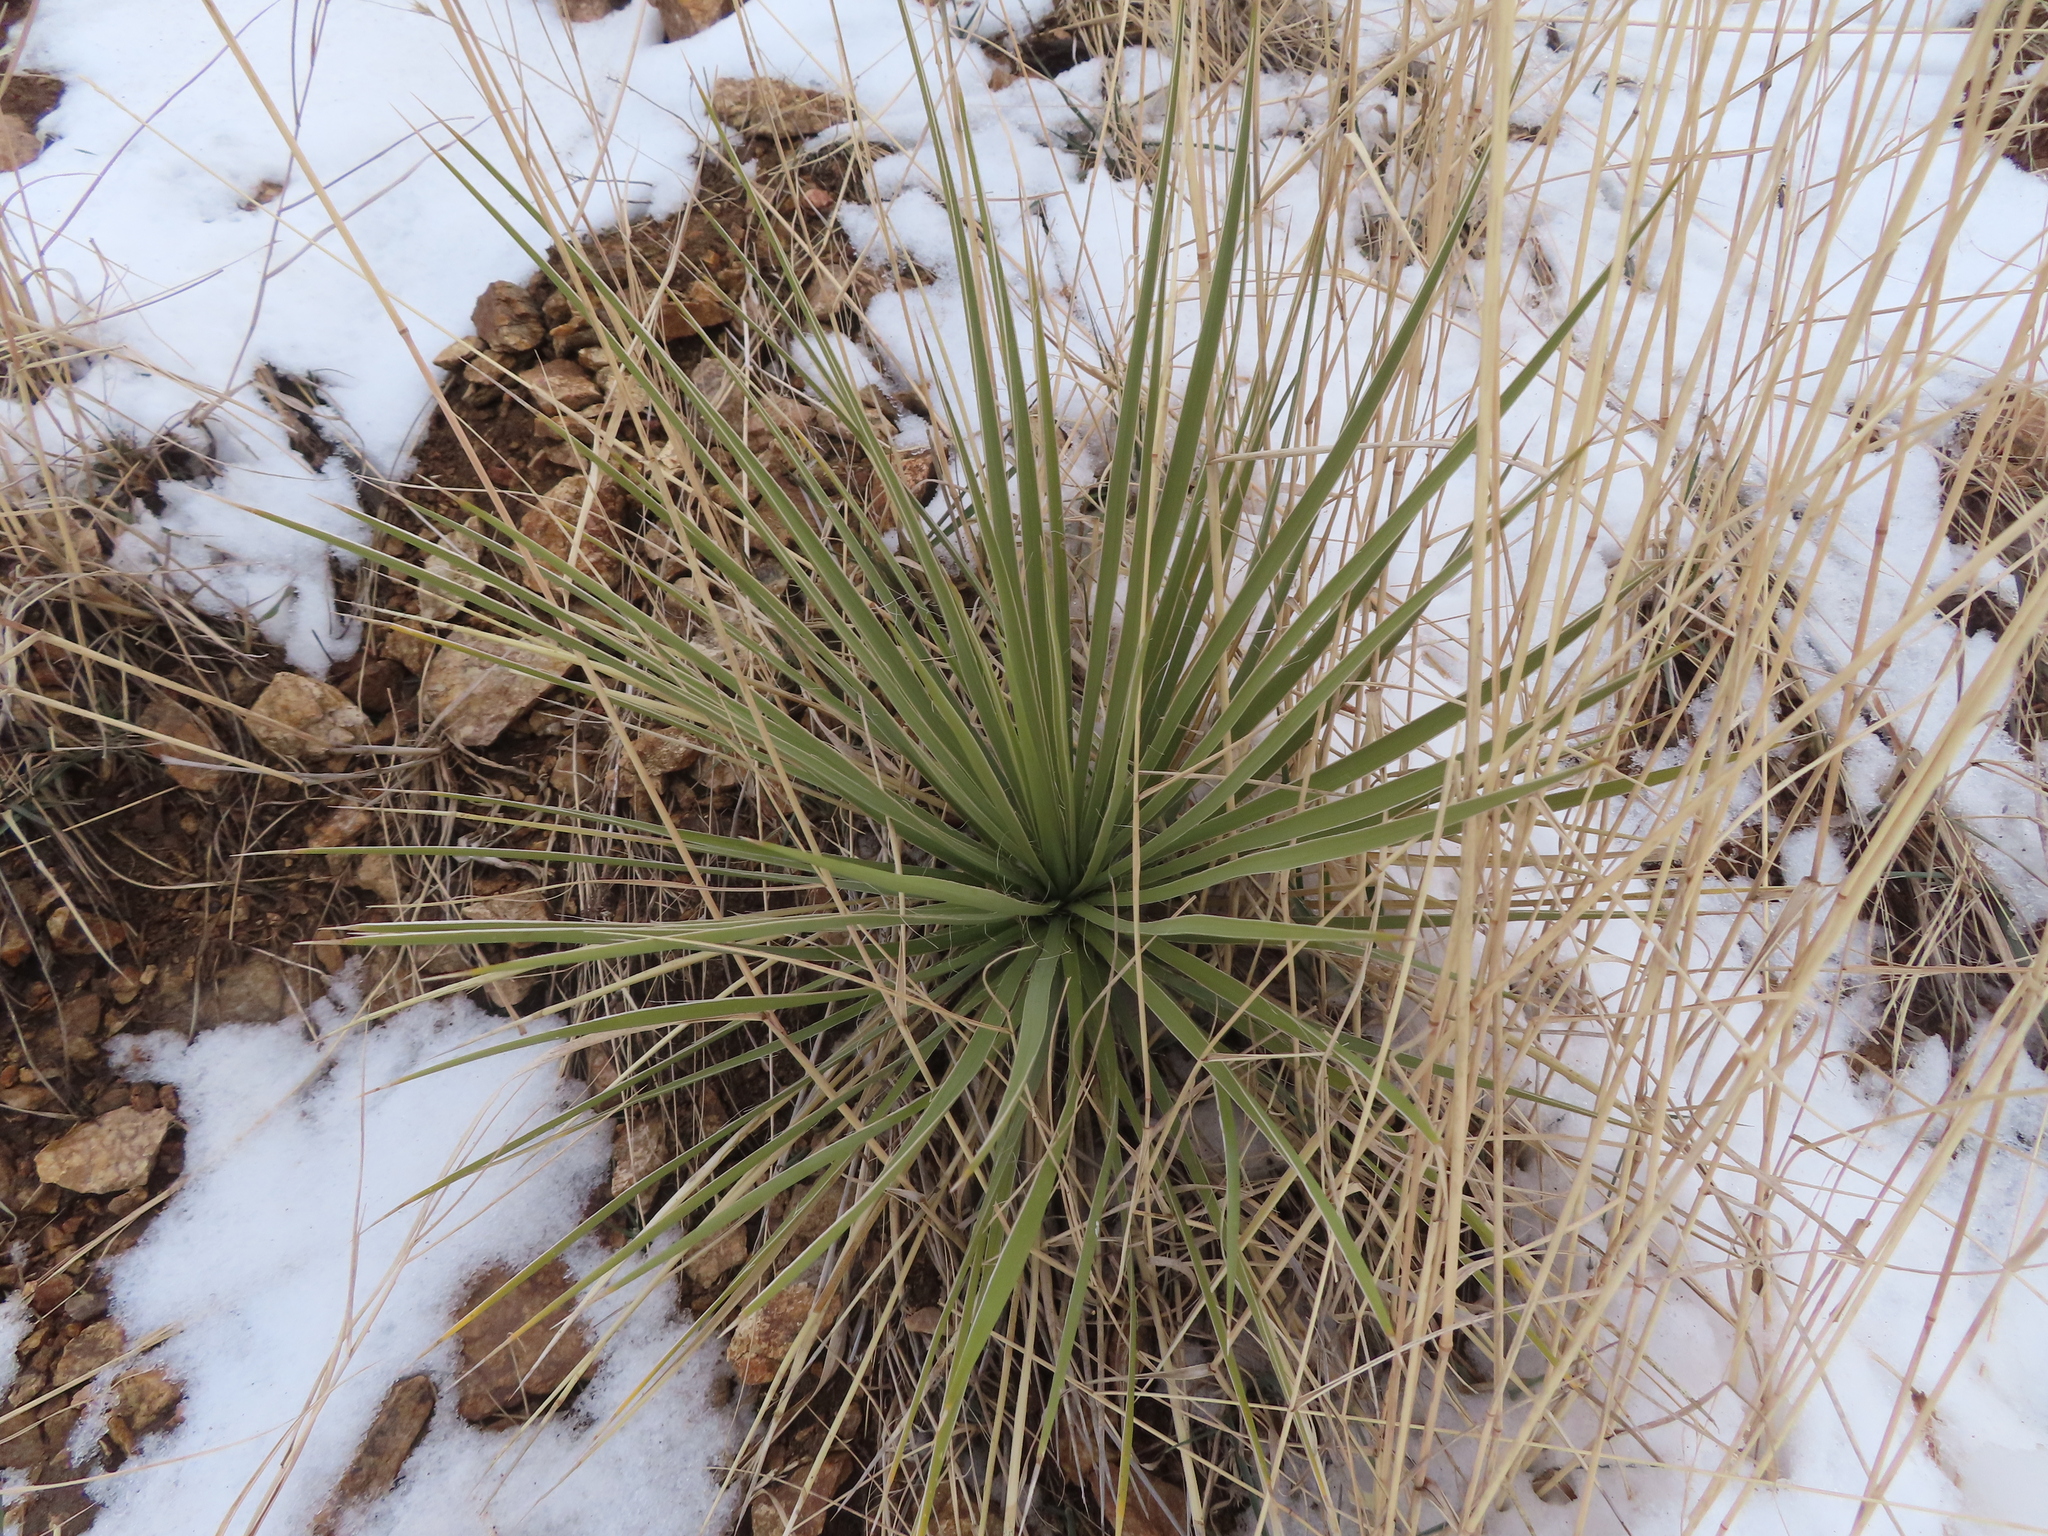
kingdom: Plantae
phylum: Tracheophyta
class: Liliopsida
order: Asparagales
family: Asparagaceae
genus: Yucca
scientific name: Yucca glauca
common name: Great plains yucca
